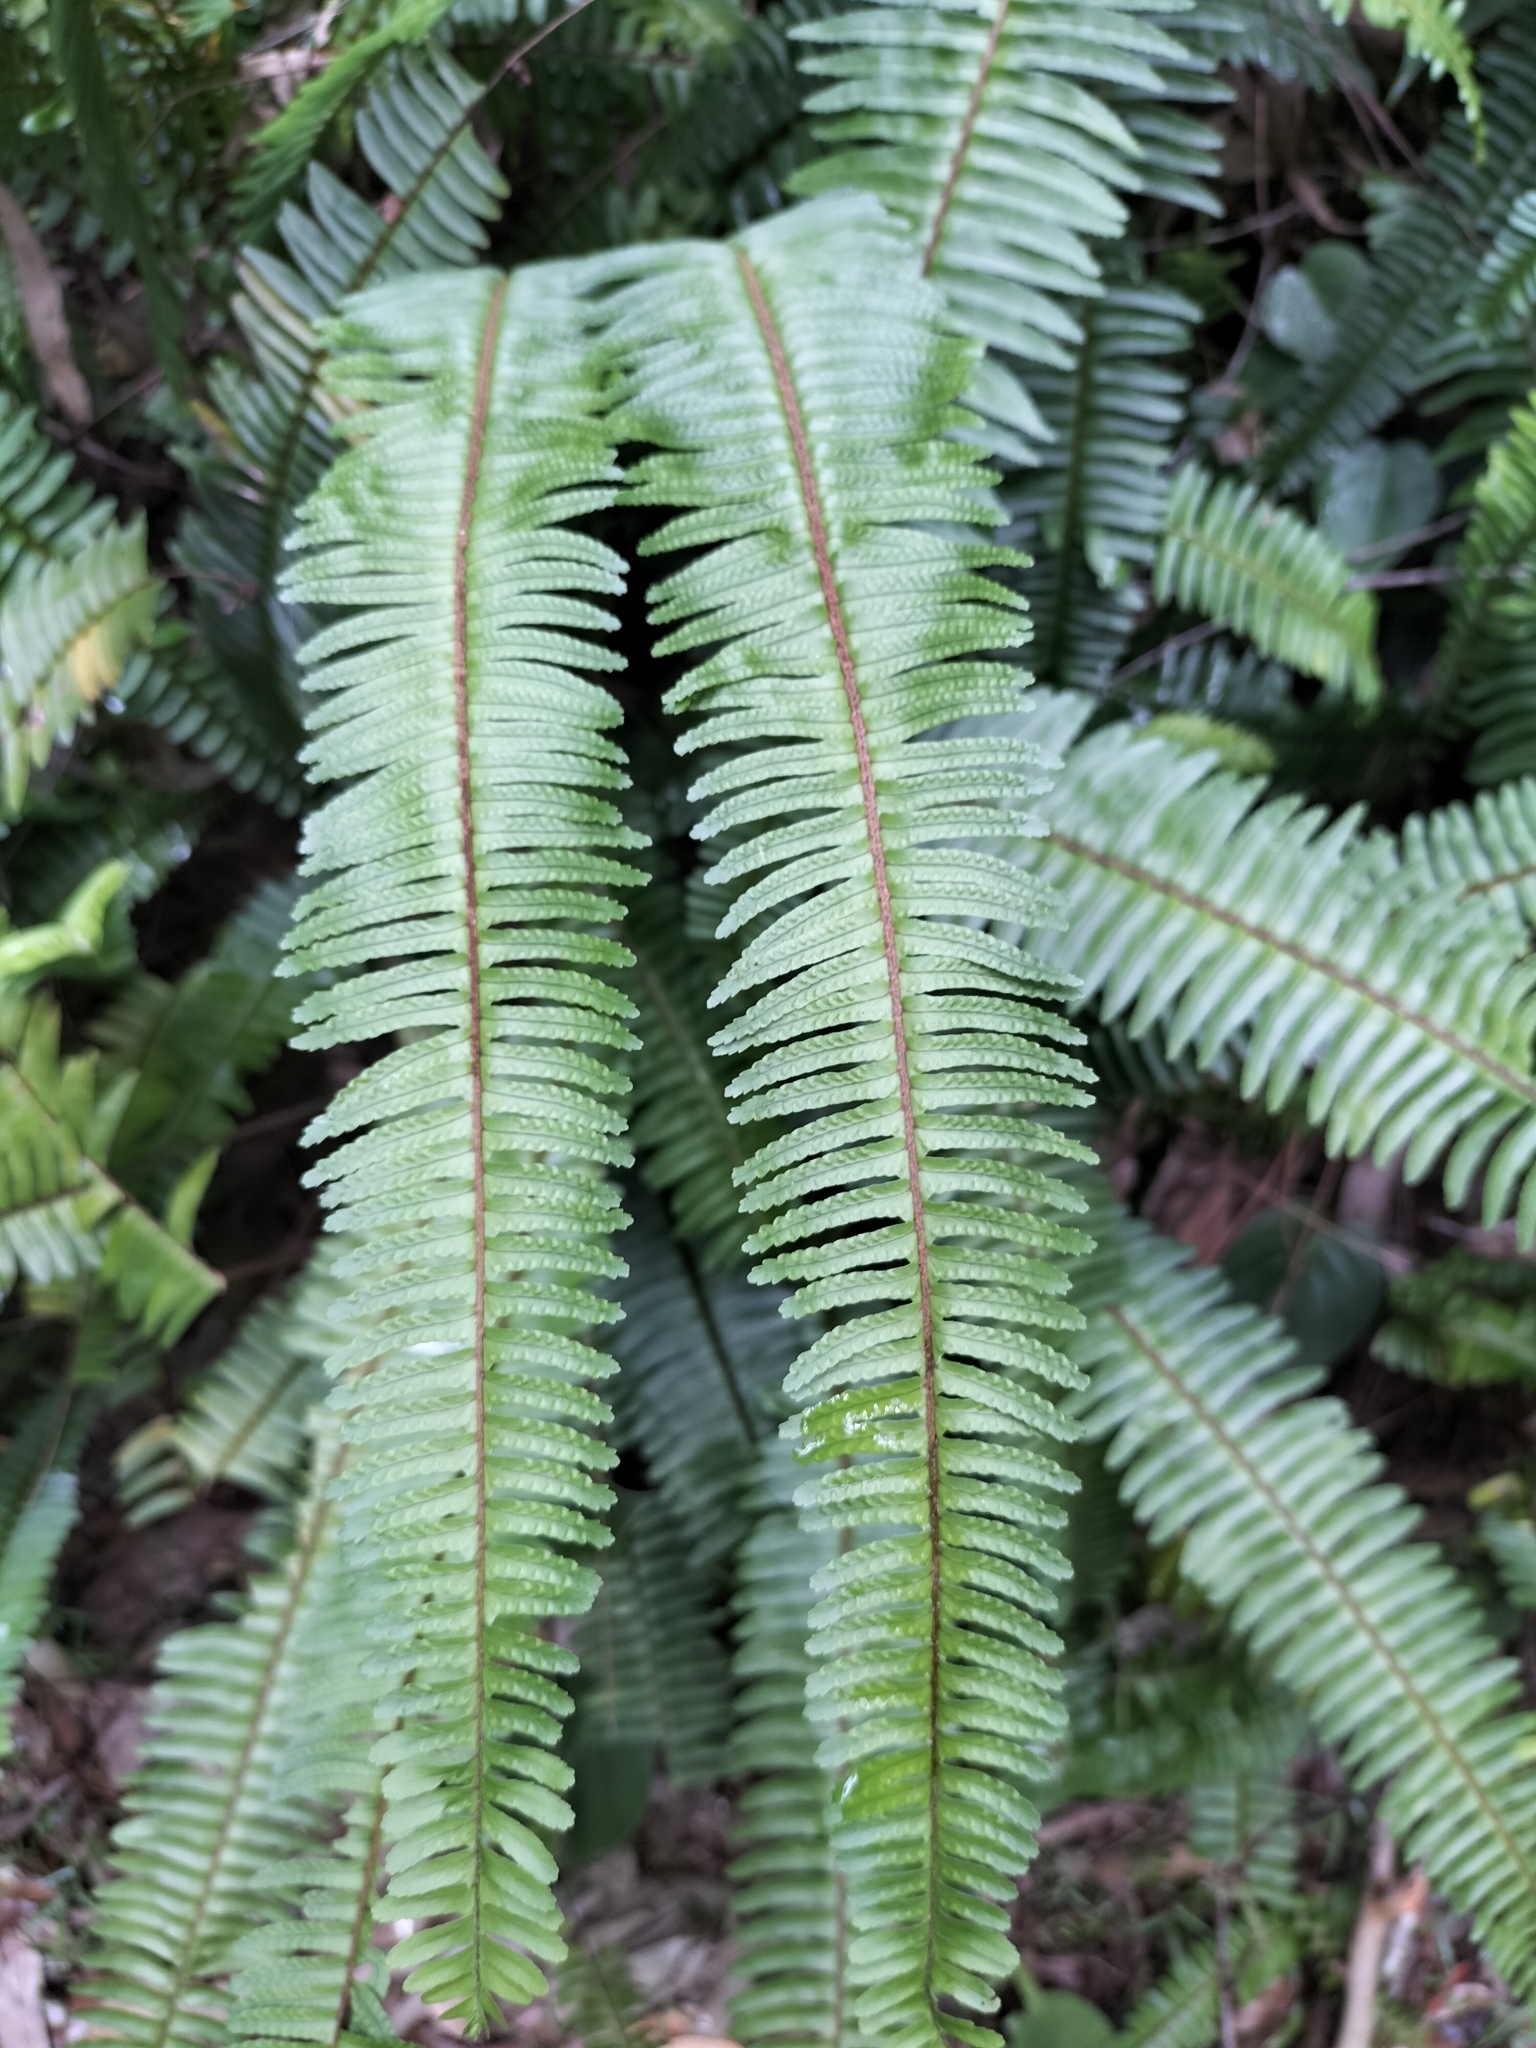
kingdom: Plantae
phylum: Tracheophyta
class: Polypodiopsida
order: Polypodiales
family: Nephrolepidaceae
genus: Nephrolepis
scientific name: Nephrolepis cordifolia
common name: Narrow swordfern
